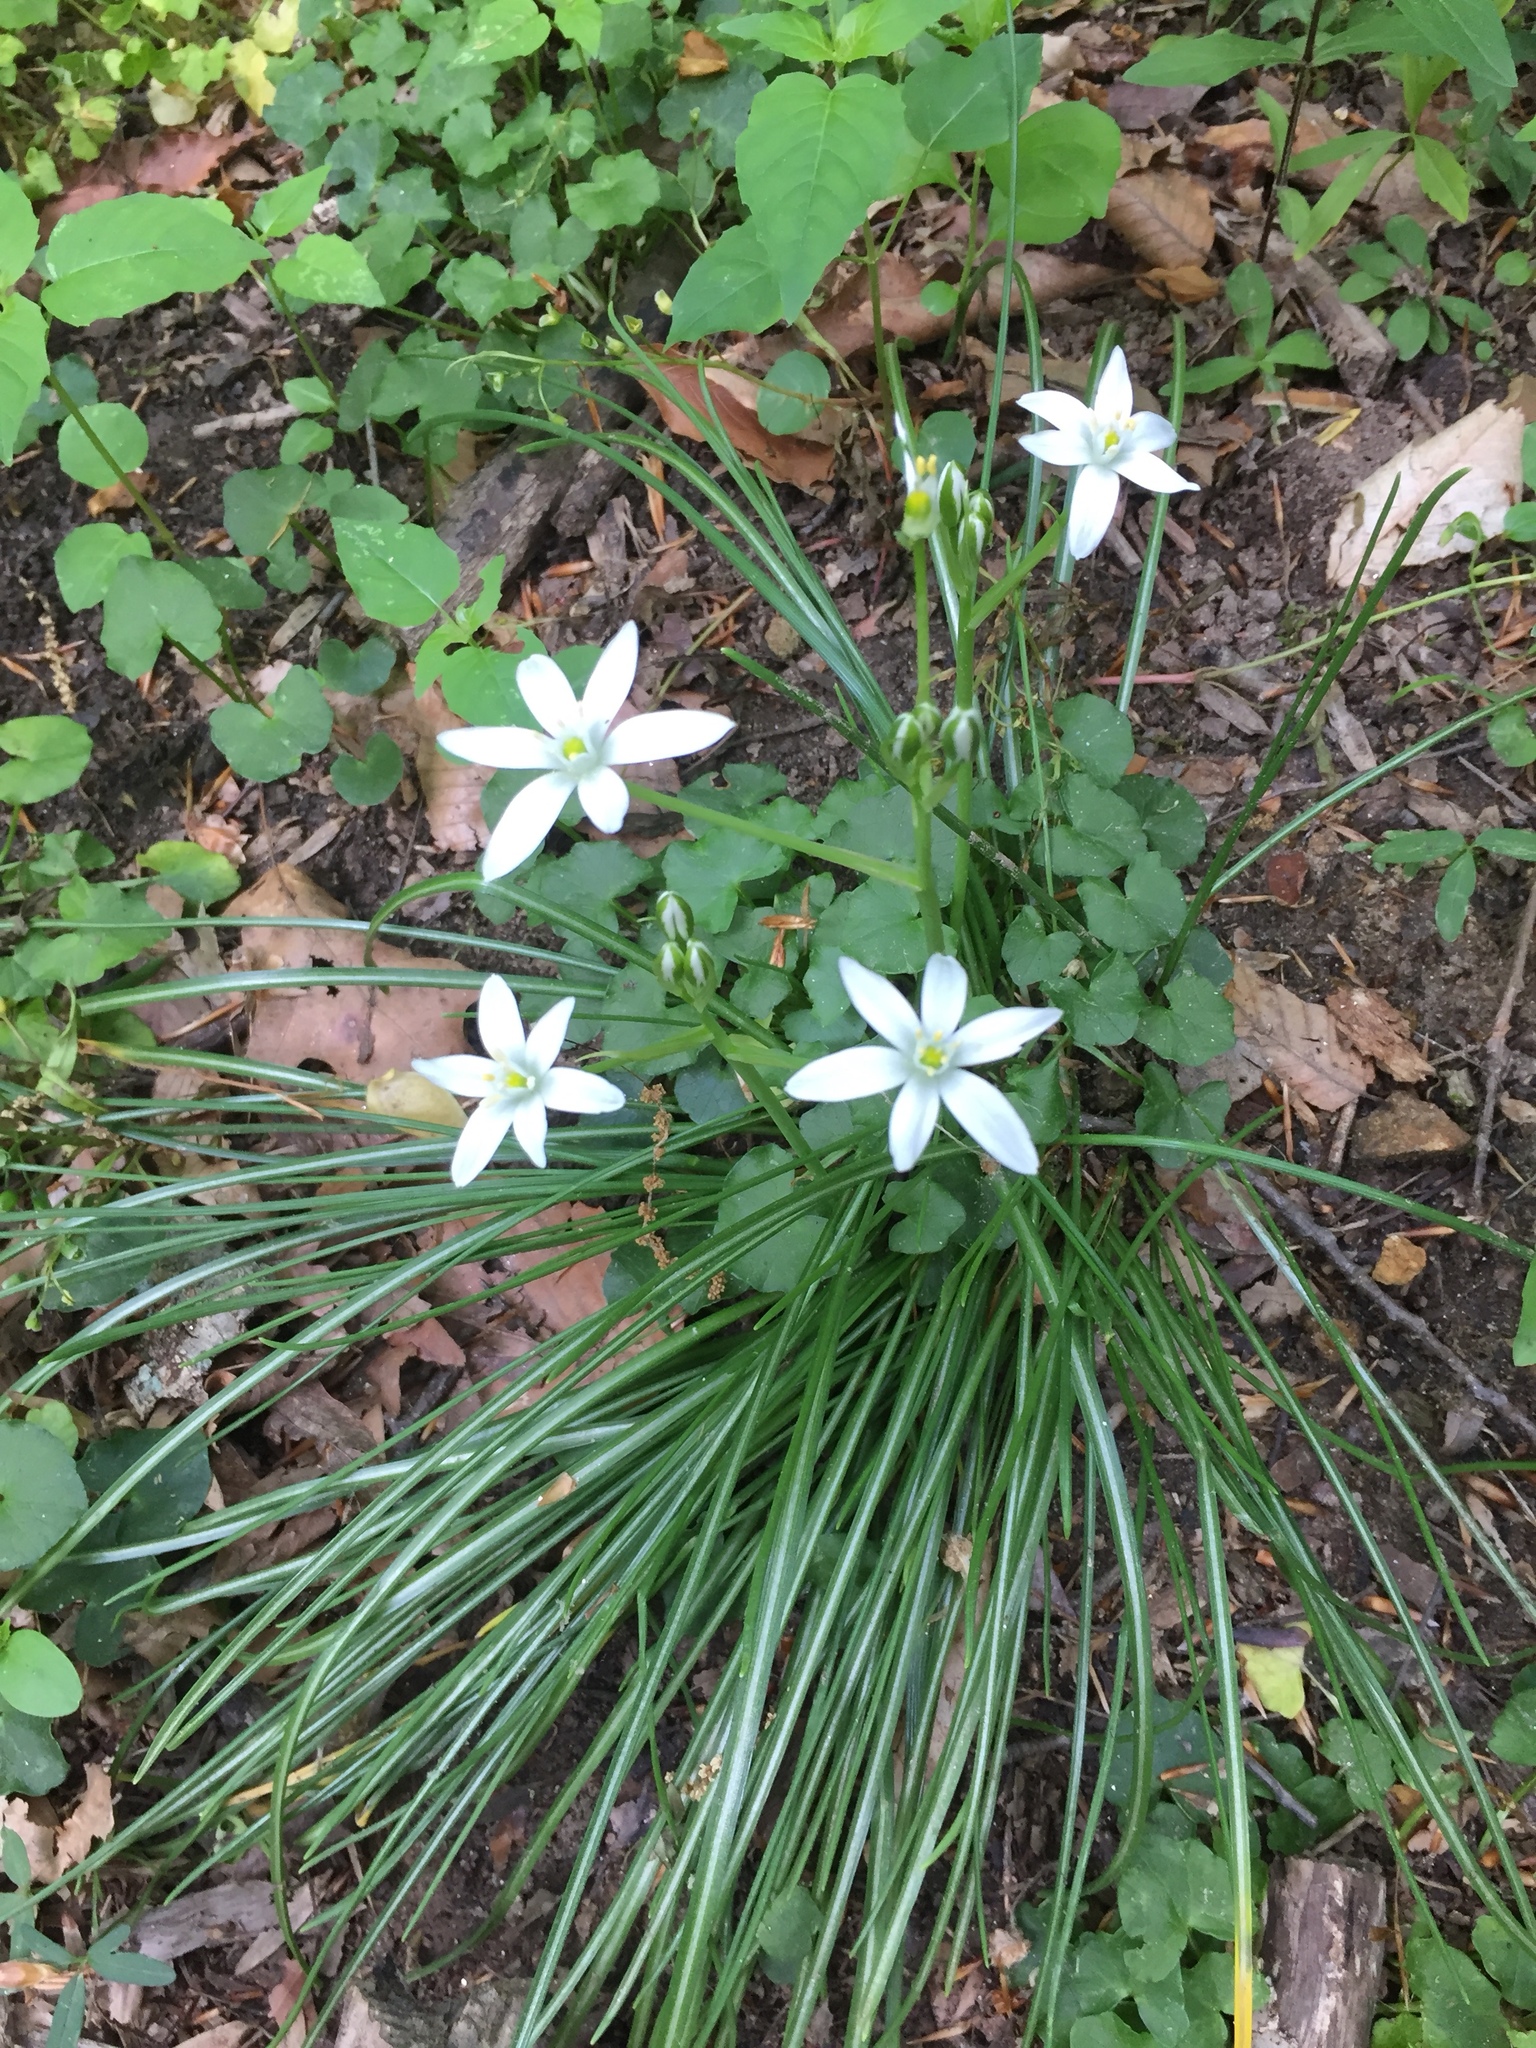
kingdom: Plantae
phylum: Tracheophyta
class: Liliopsida
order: Asparagales
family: Asparagaceae
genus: Ornithogalum
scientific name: Ornithogalum umbellatum
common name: Garden star-of-bethlehem
